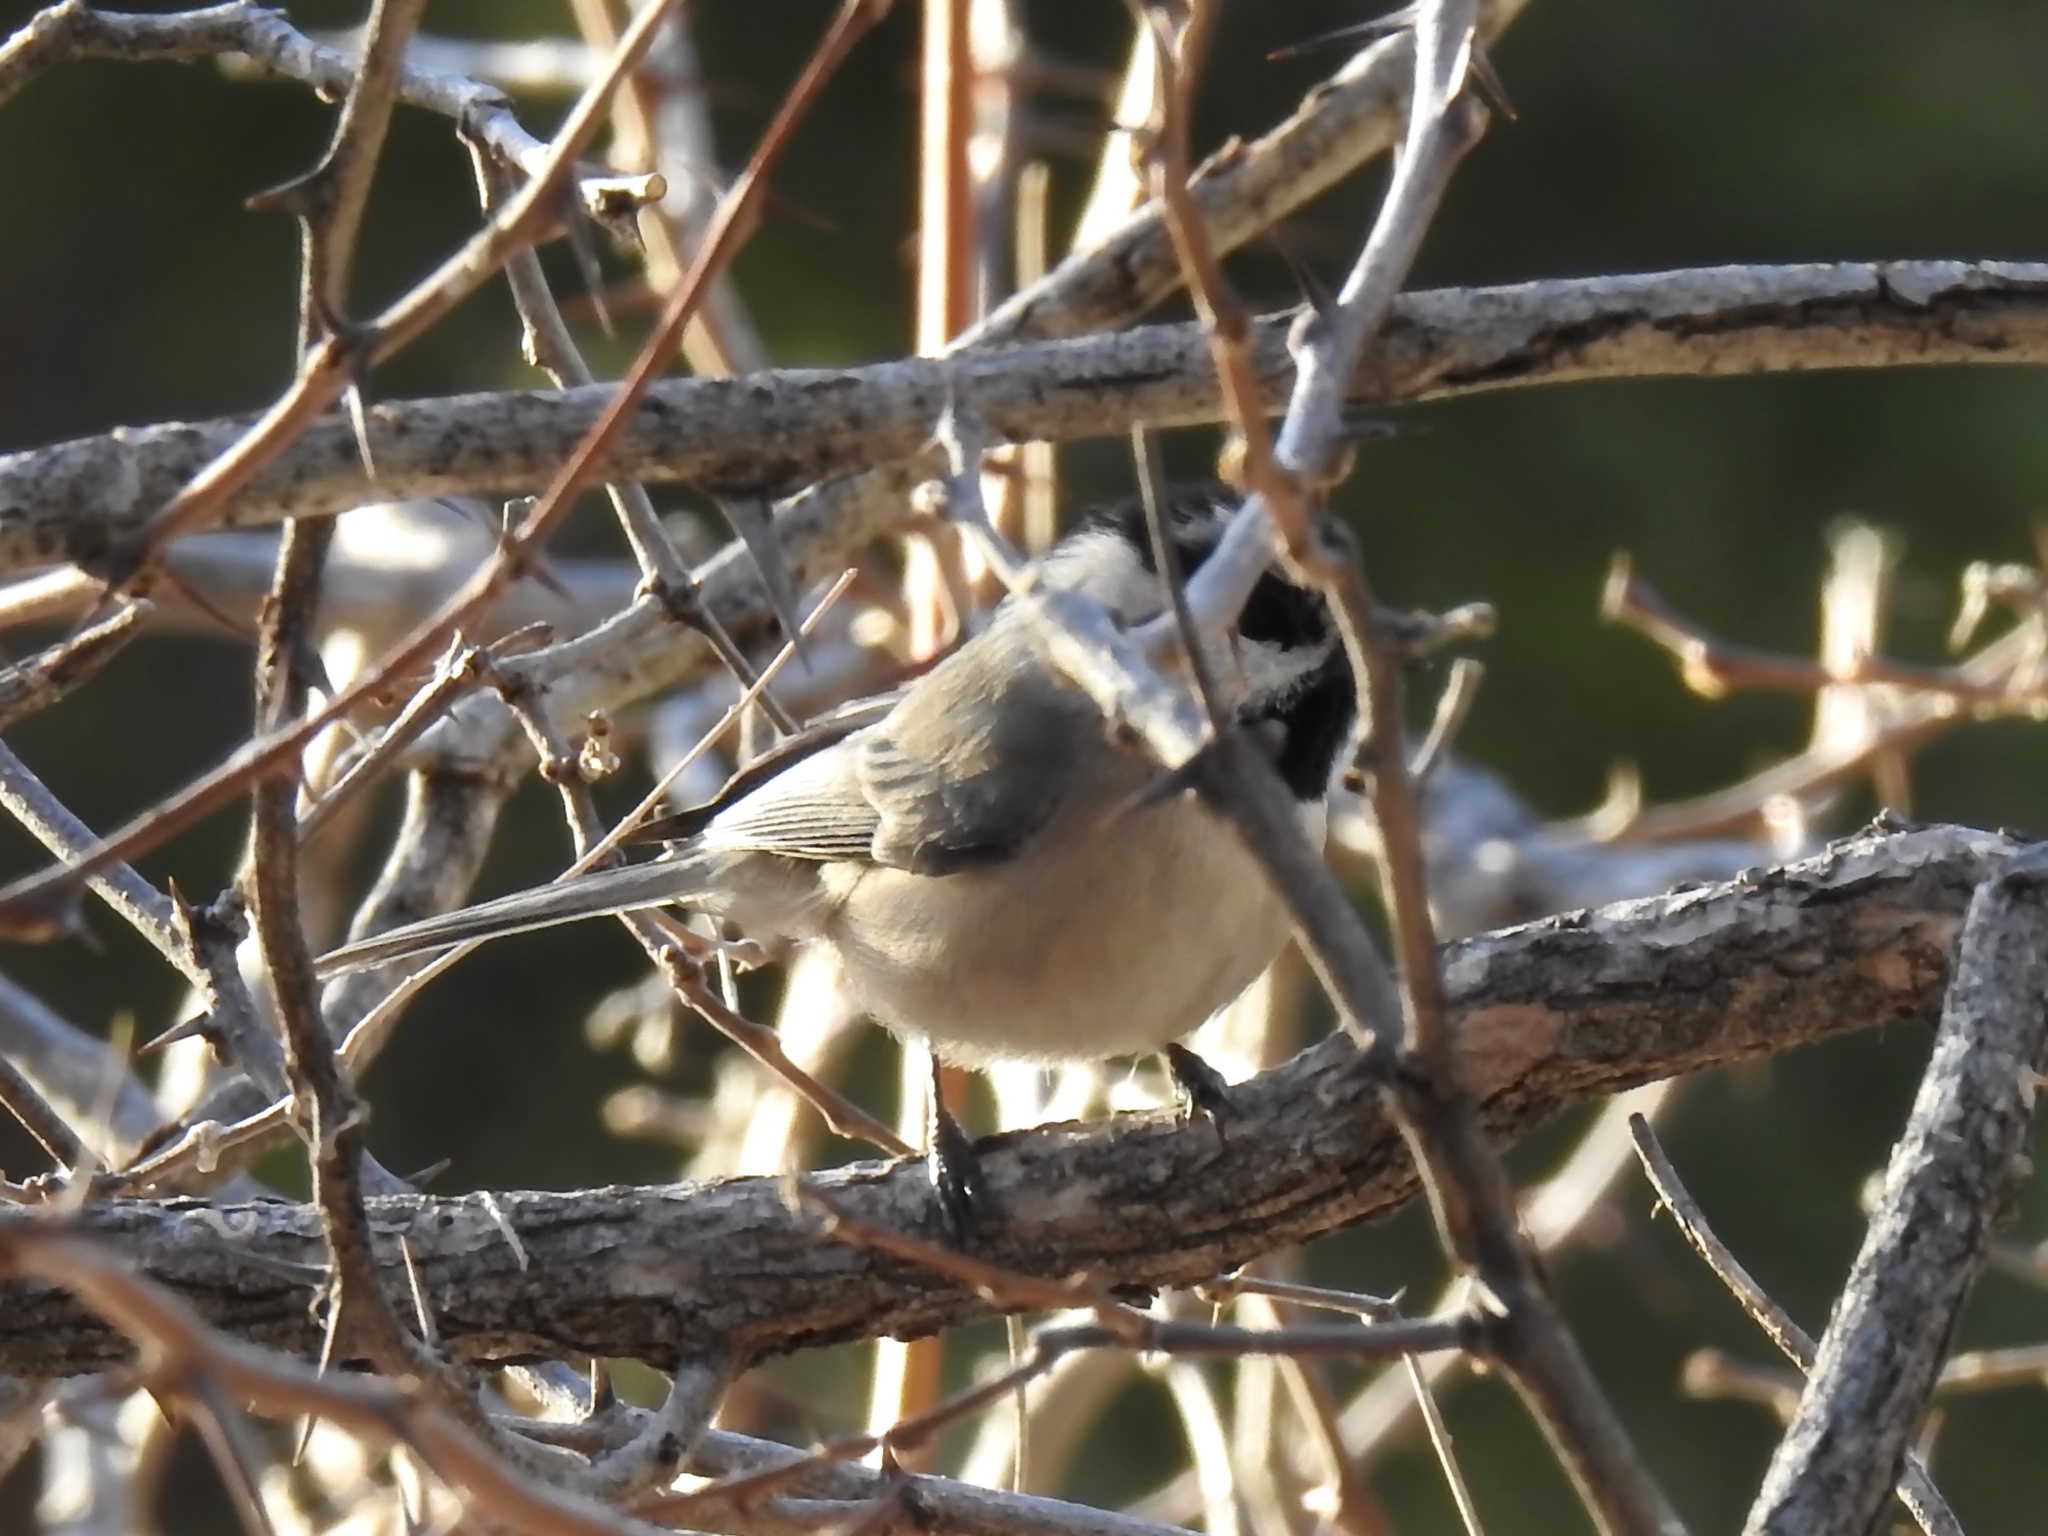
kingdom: Animalia
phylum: Chordata
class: Aves
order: Passeriformes
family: Paridae
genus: Poecile
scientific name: Poecile gambeli
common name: Mountain chickadee
